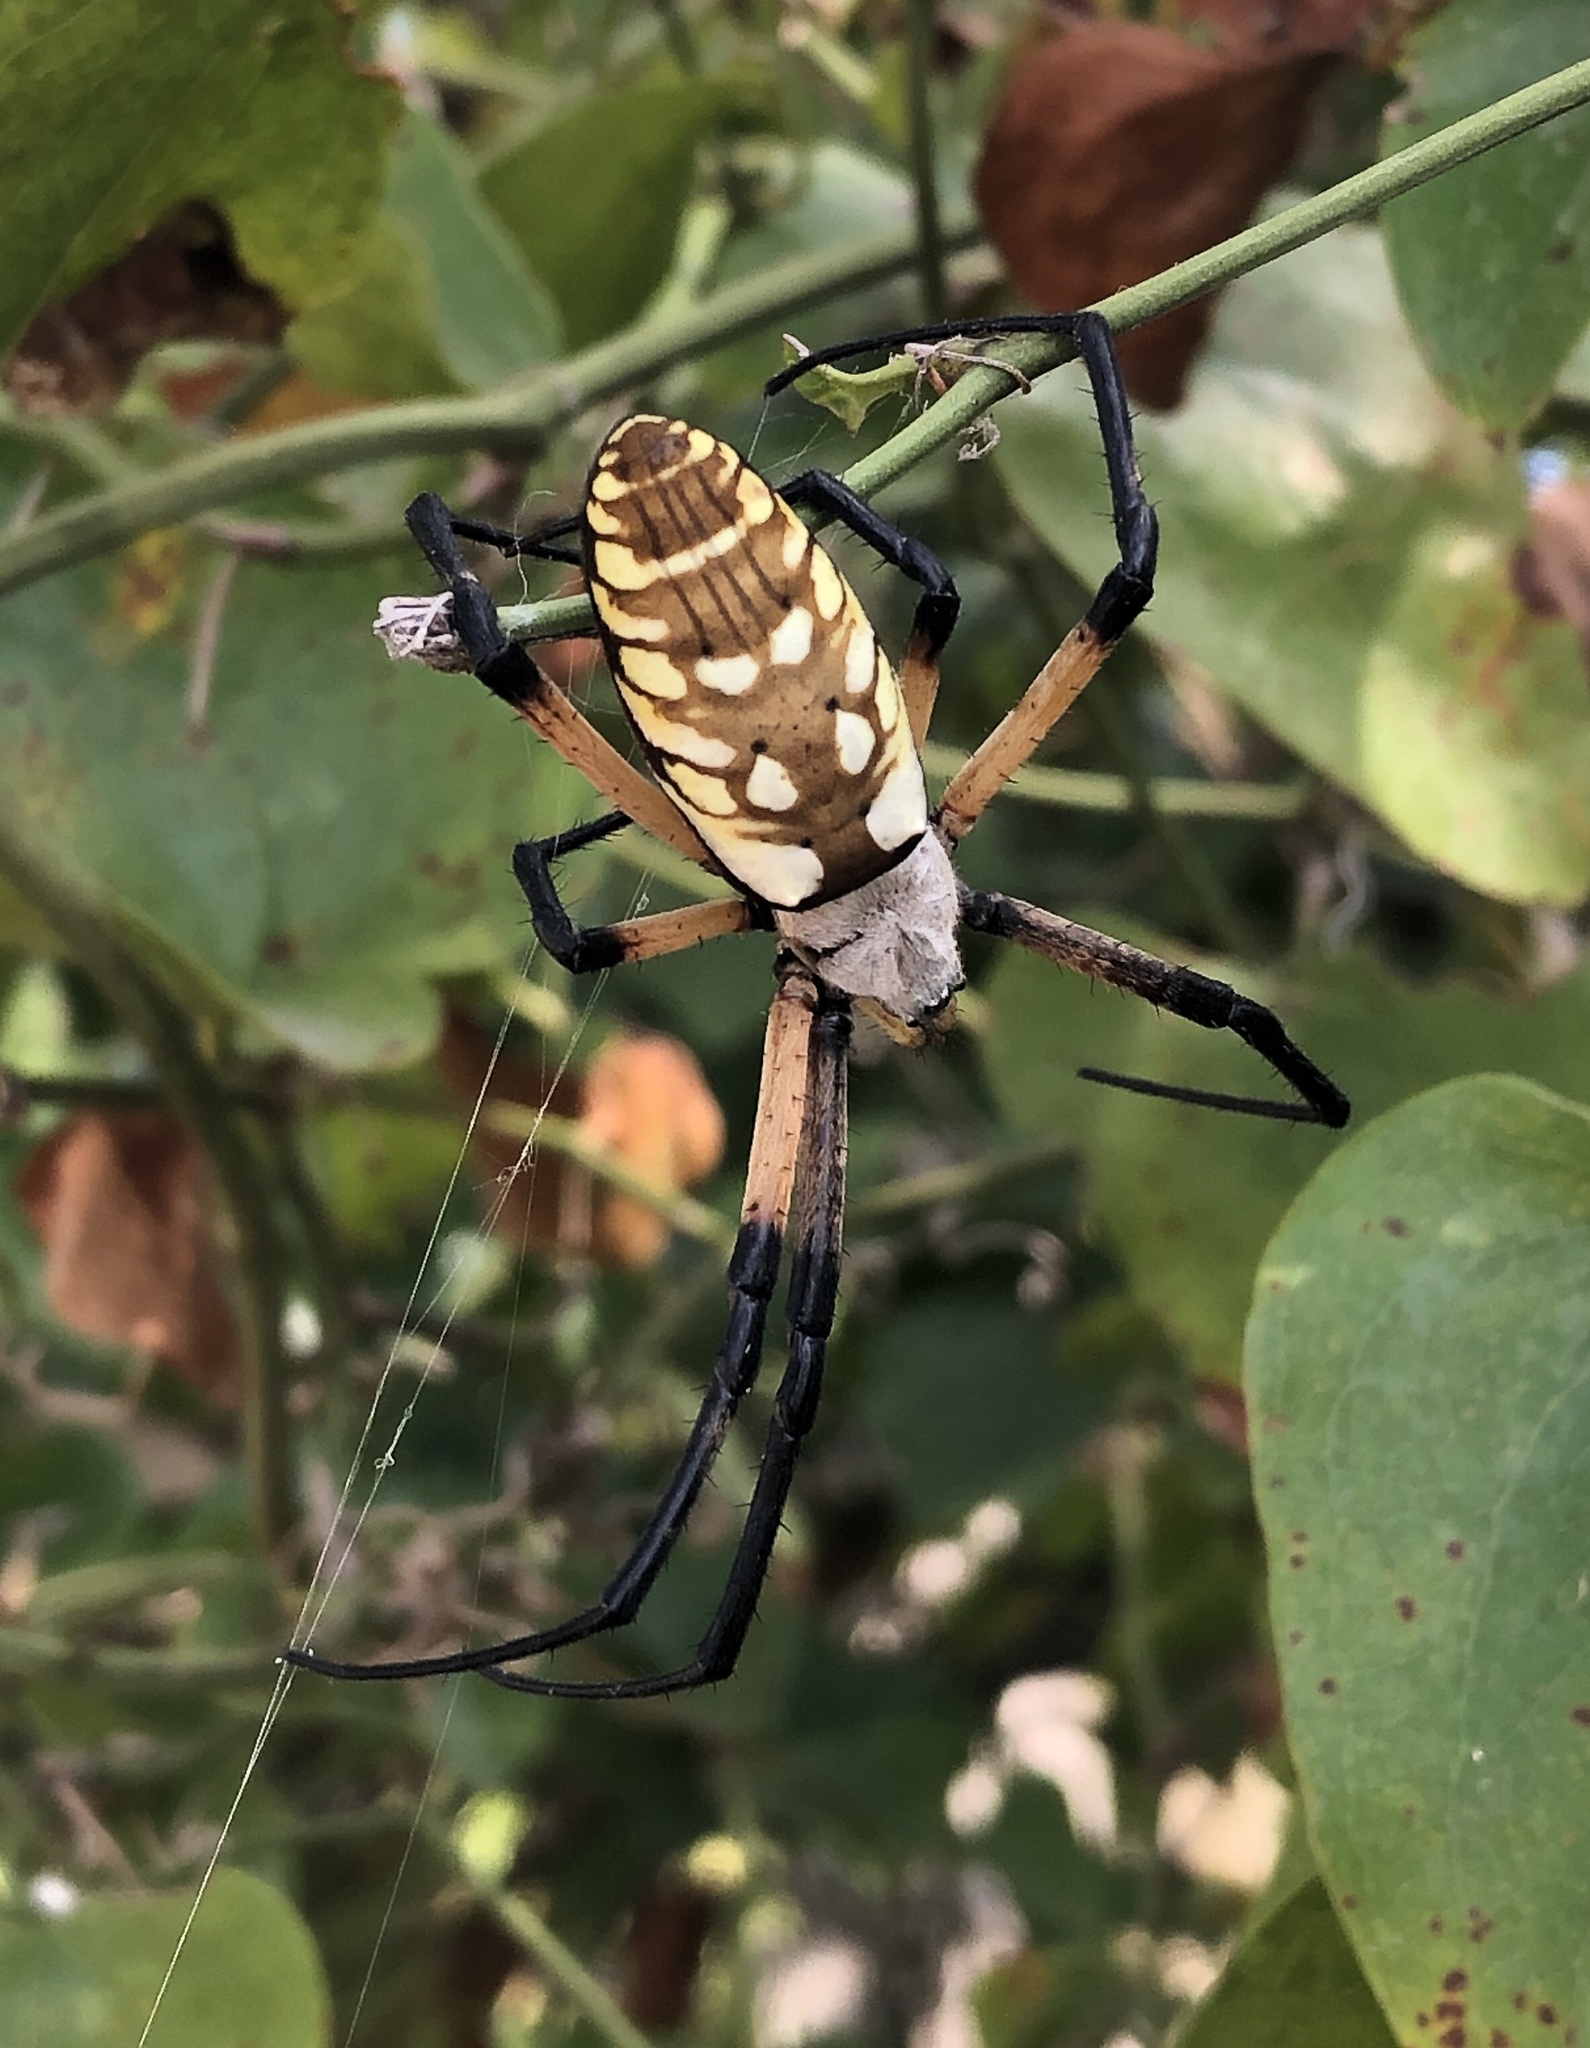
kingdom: Animalia
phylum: Arthropoda
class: Arachnida
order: Araneae
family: Araneidae
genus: Argiope
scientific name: Argiope aurantia
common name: Orb weavers
